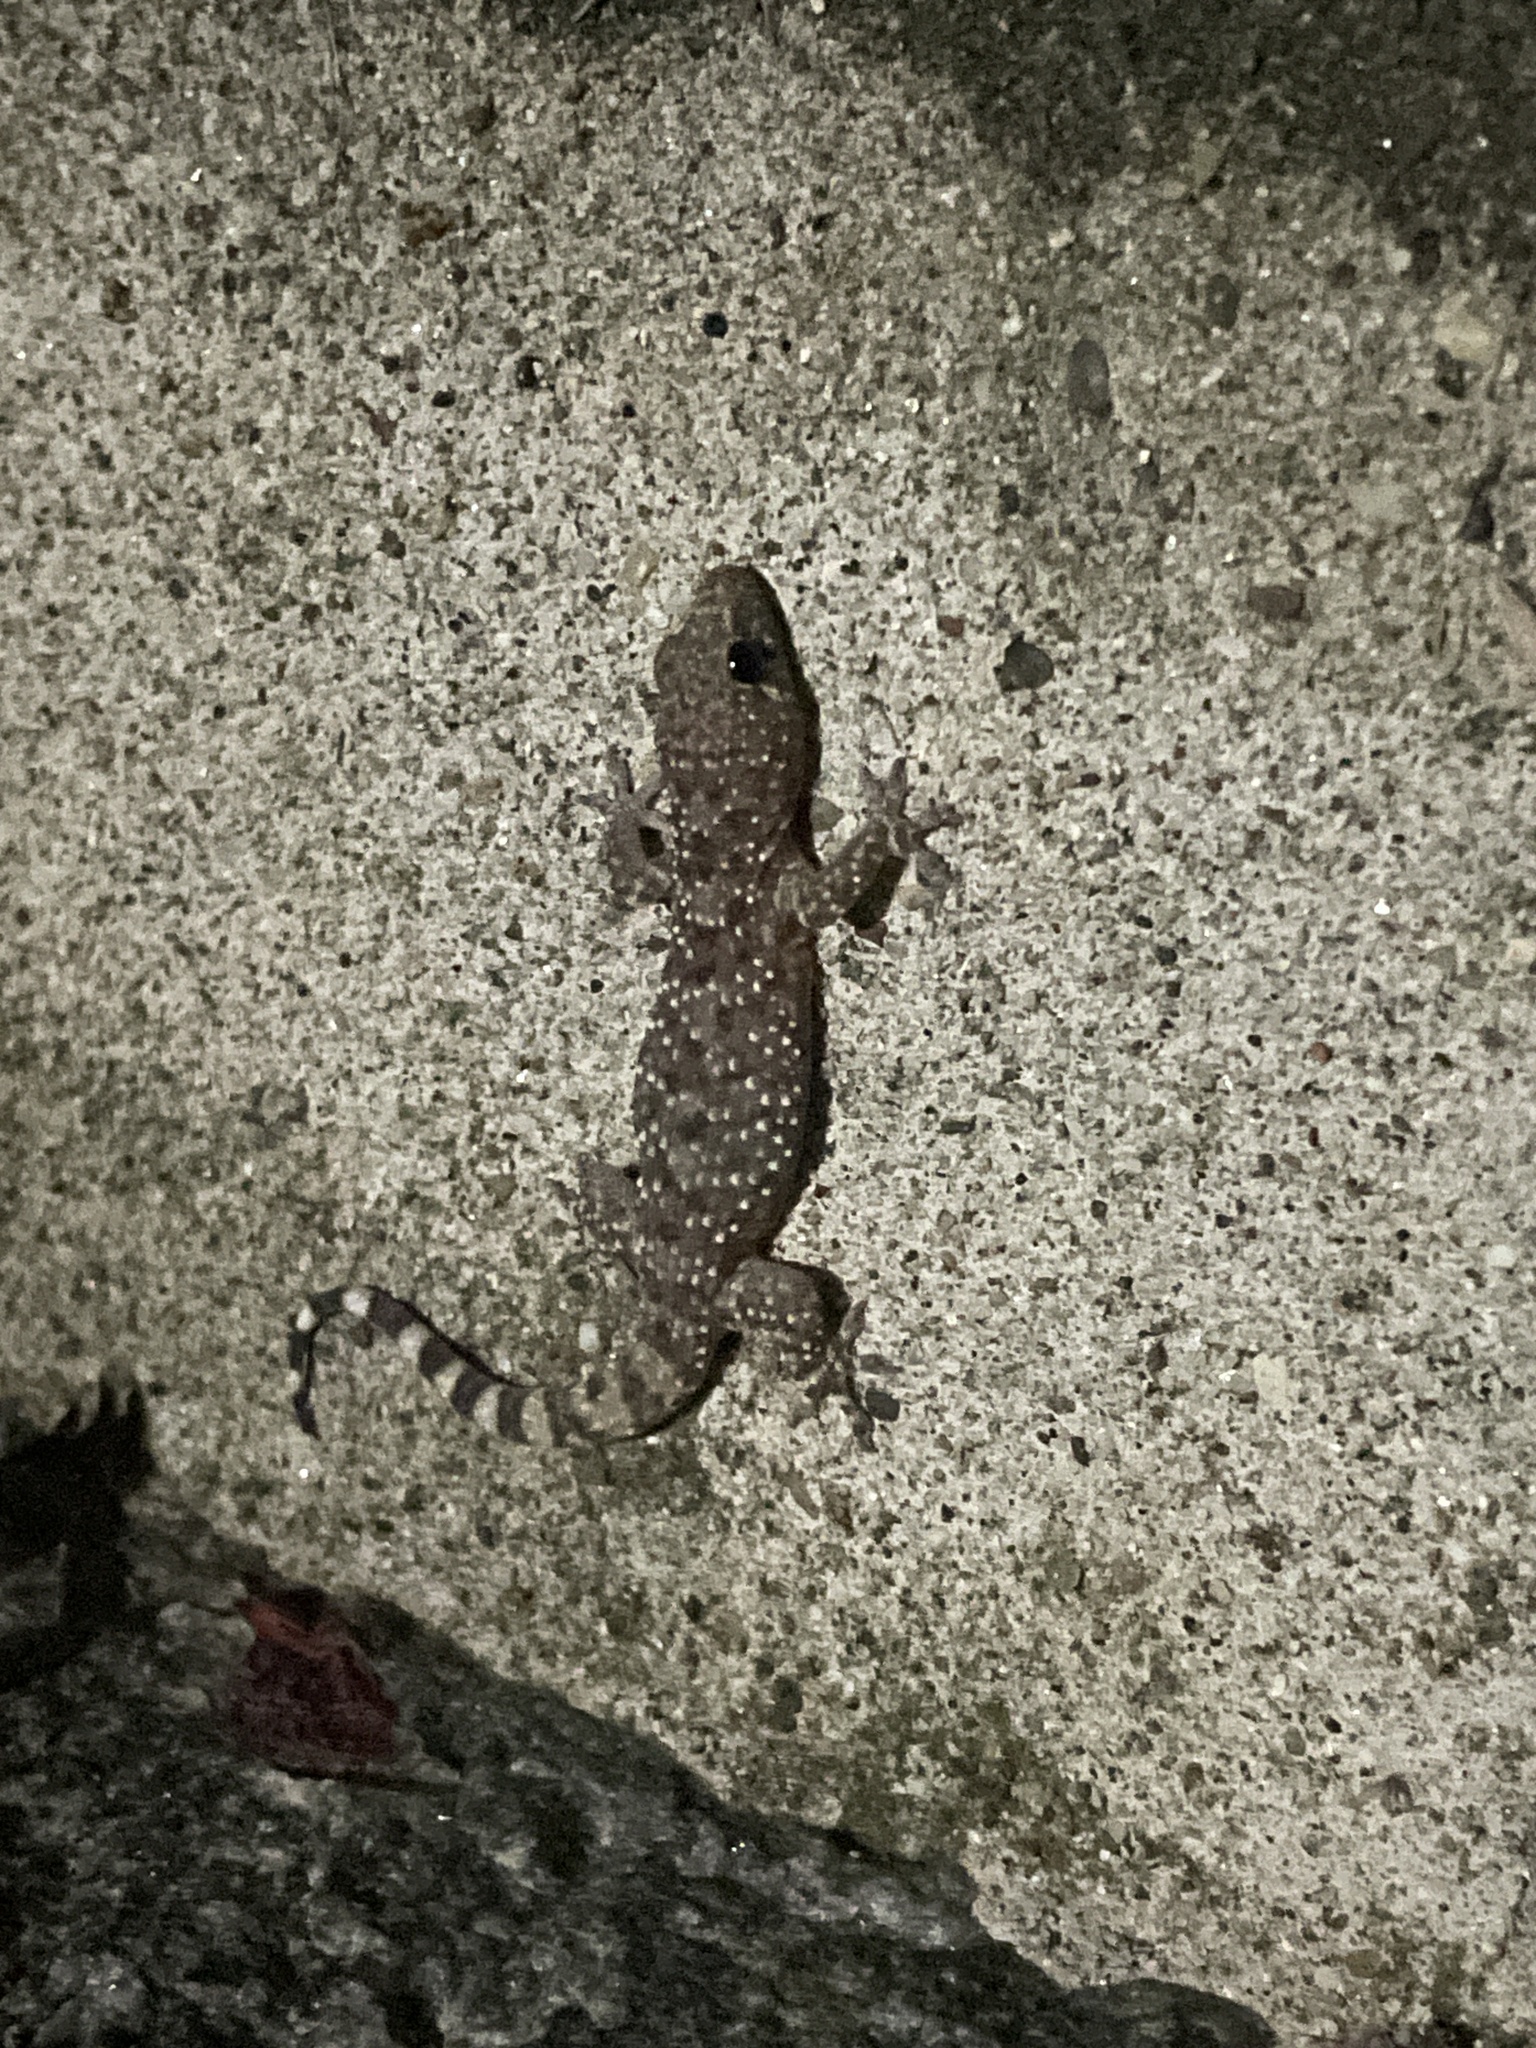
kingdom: Animalia
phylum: Chordata
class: Squamata
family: Gekkonidae
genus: Hemidactylus
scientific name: Hemidactylus turcicus
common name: Turkish gecko
